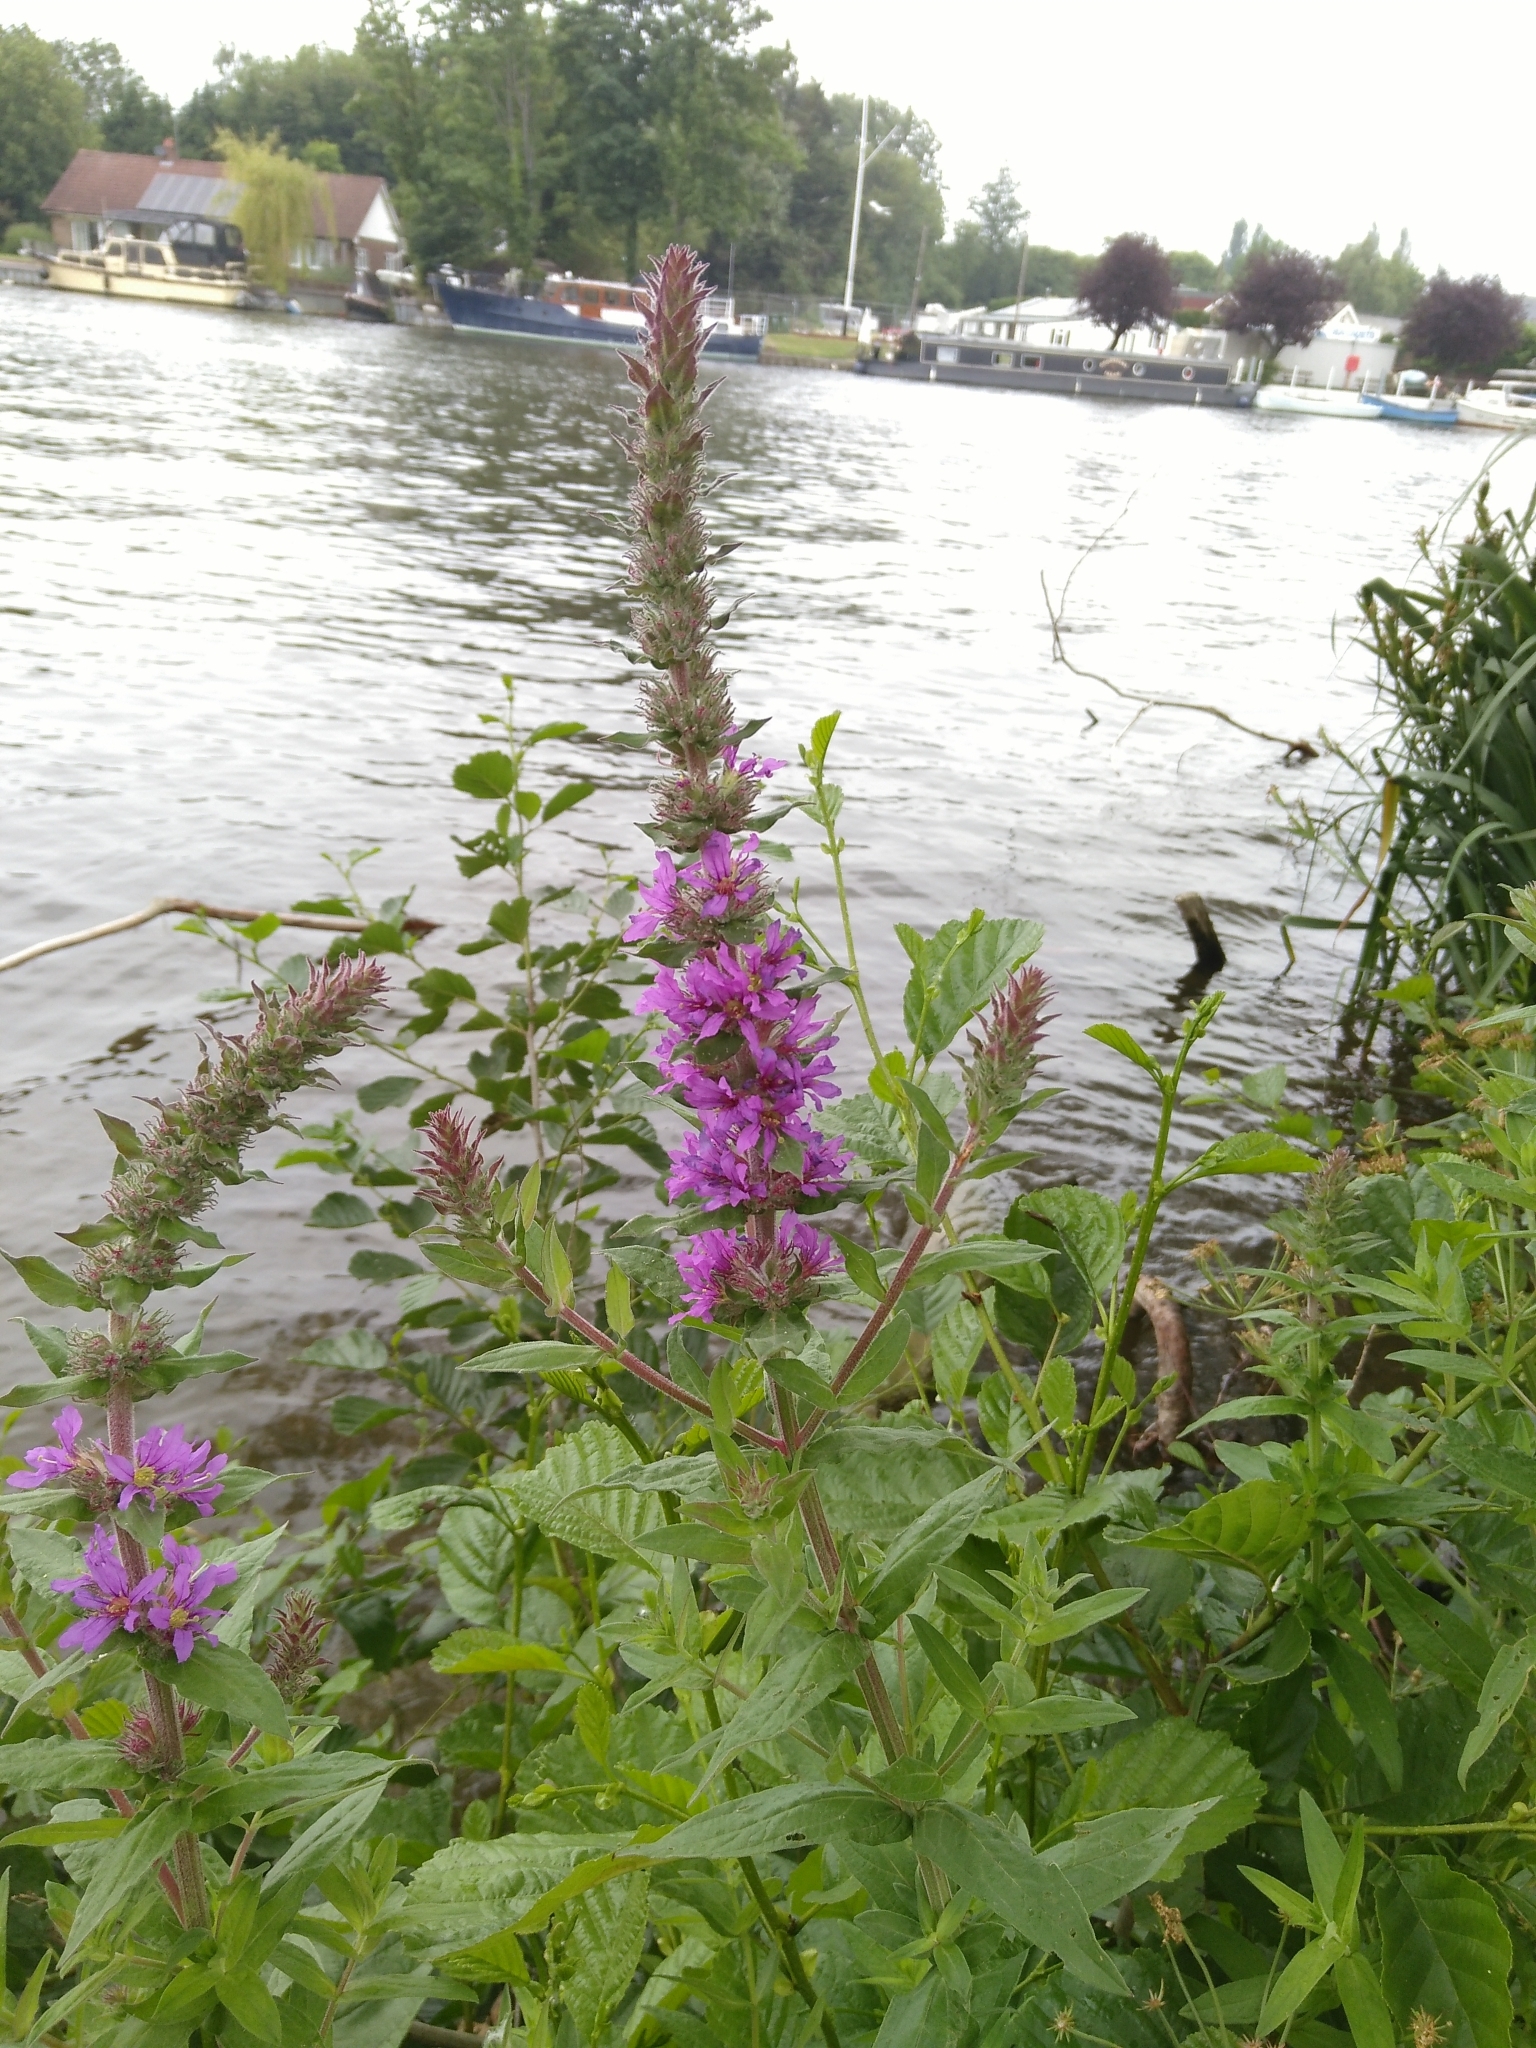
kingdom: Plantae
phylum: Tracheophyta
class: Magnoliopsida
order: Myrtales
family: Lythraceae
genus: Lythrum
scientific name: Lythrum salicaria
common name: Purple loosestrife
